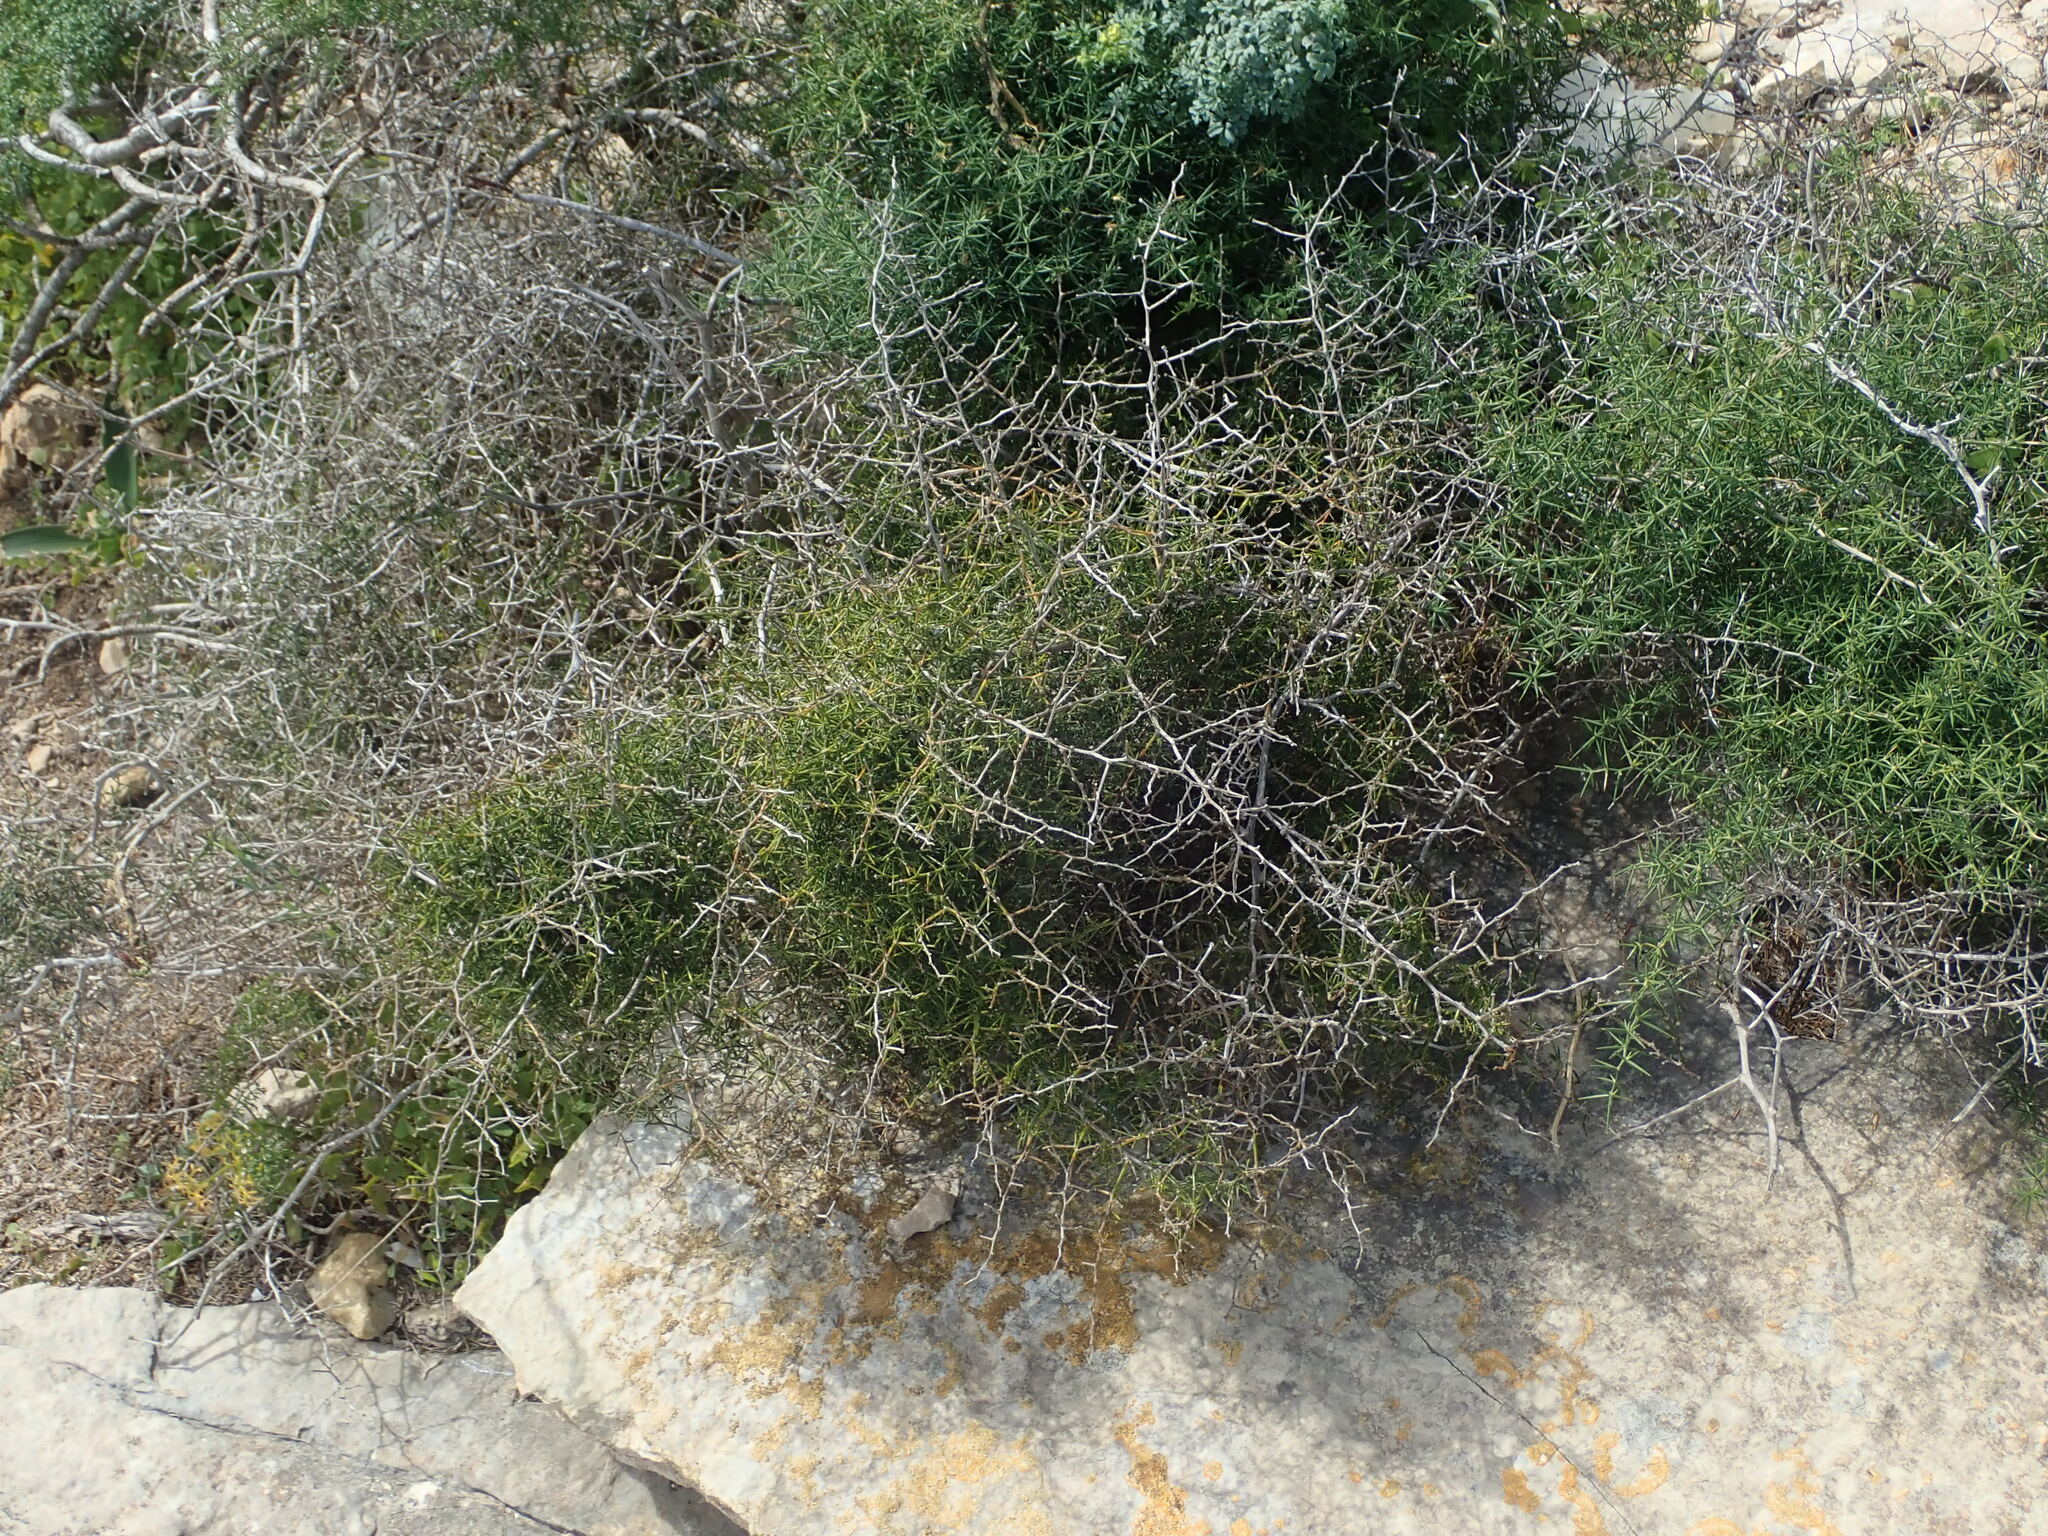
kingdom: Plantae
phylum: Tracheophyta
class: Liliopsida
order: Asparagales
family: Asparagaceae
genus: Asparagus
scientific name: Asparagus aphyllus
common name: Mediterranean asparagus
